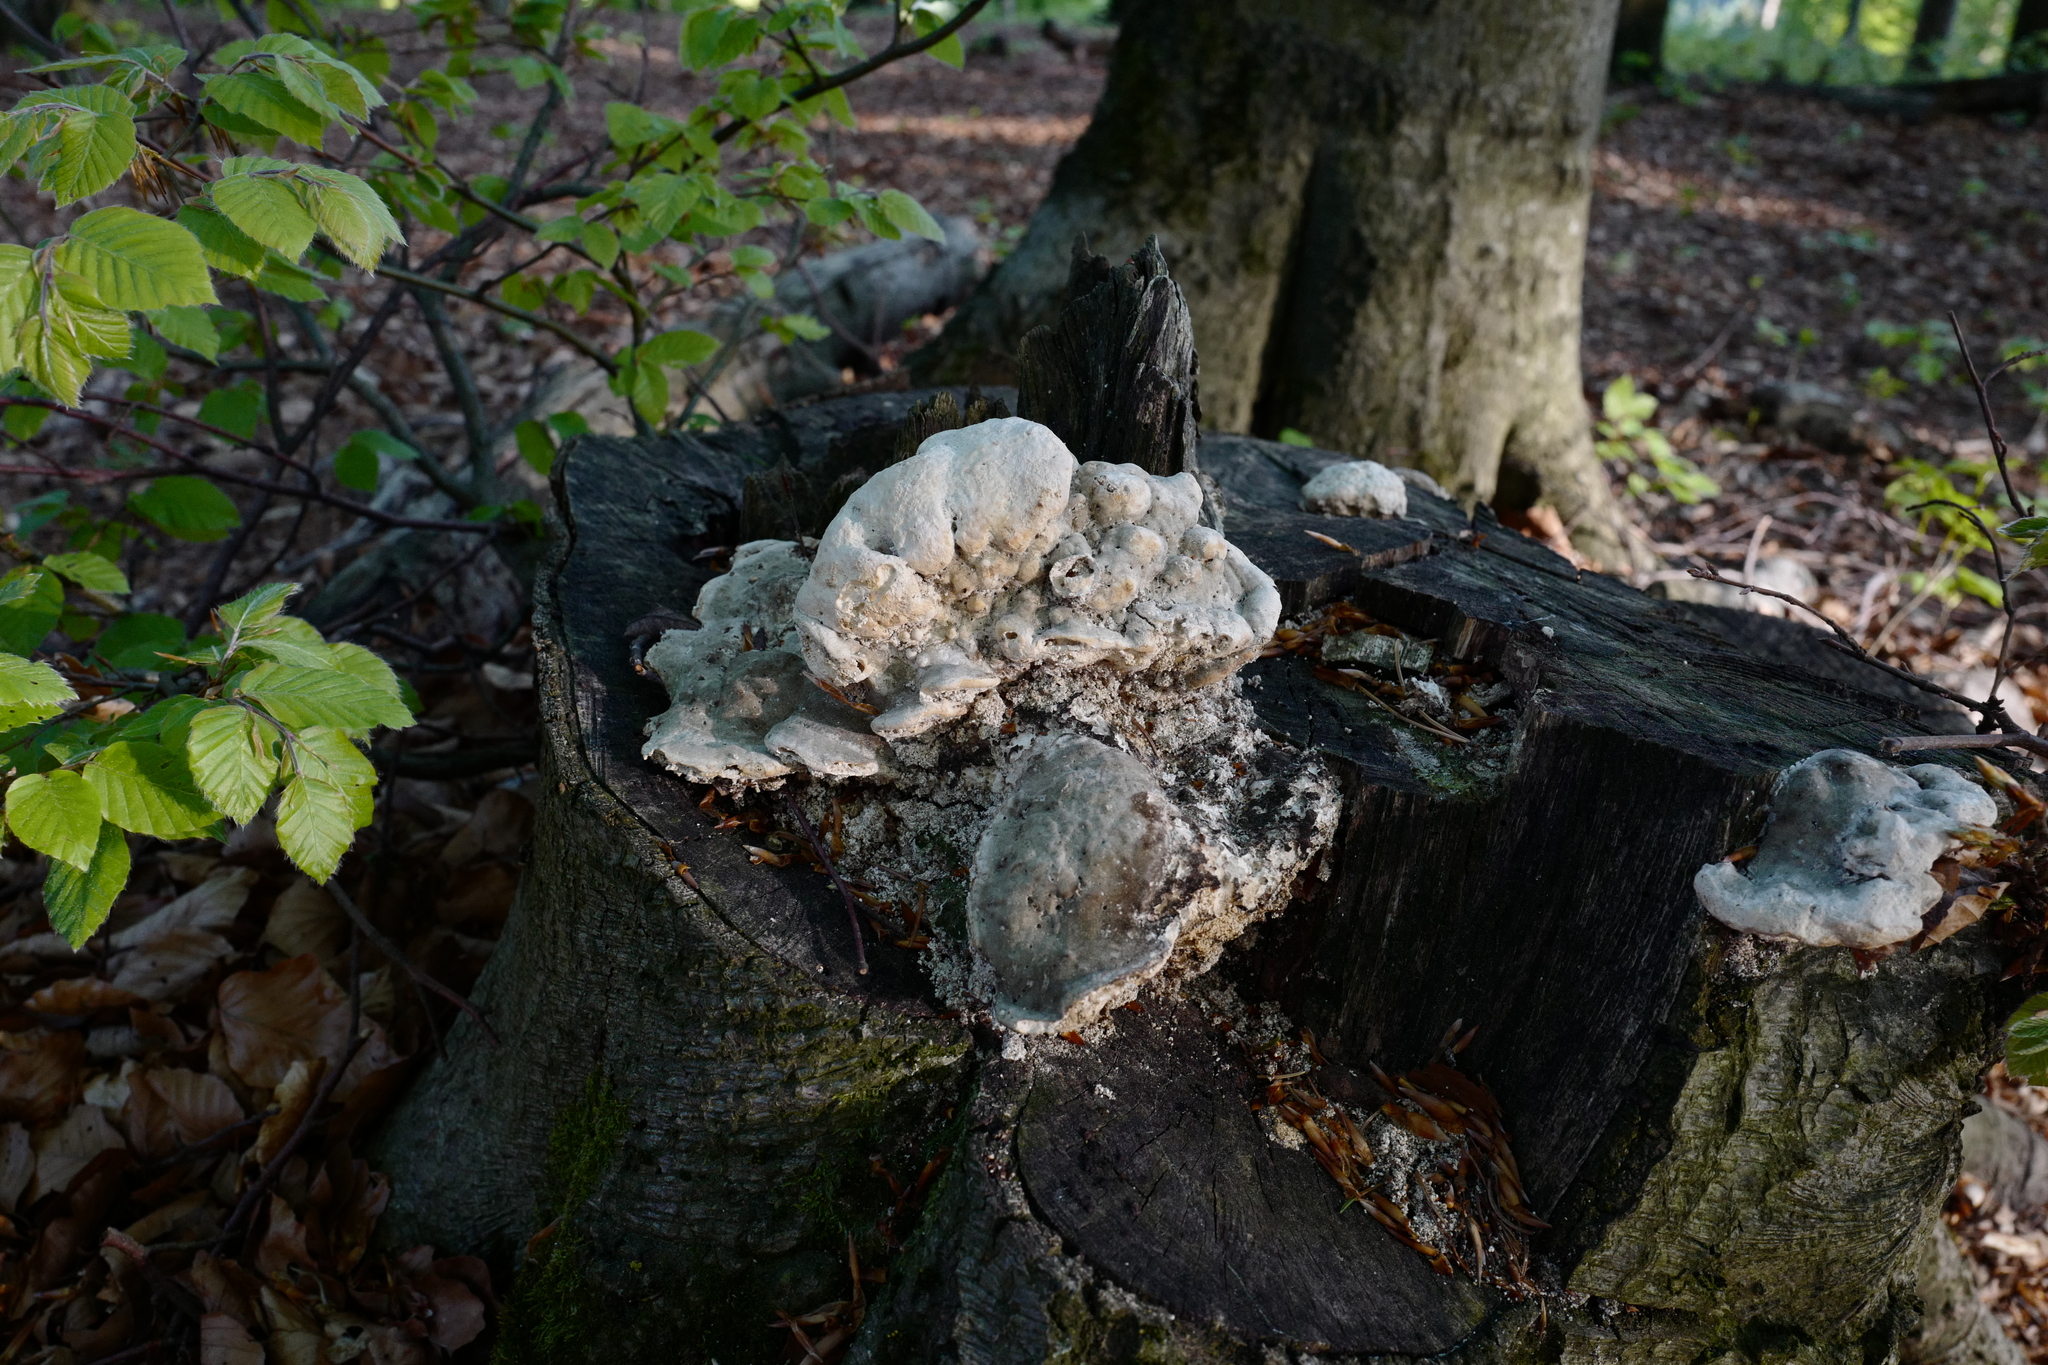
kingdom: Fungi
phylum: Basidiomycota
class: Agaricomycetes
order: Polyporales
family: Polyporaceae
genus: Trametes
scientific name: Trametes gibbosa
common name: Lumpy bracket
